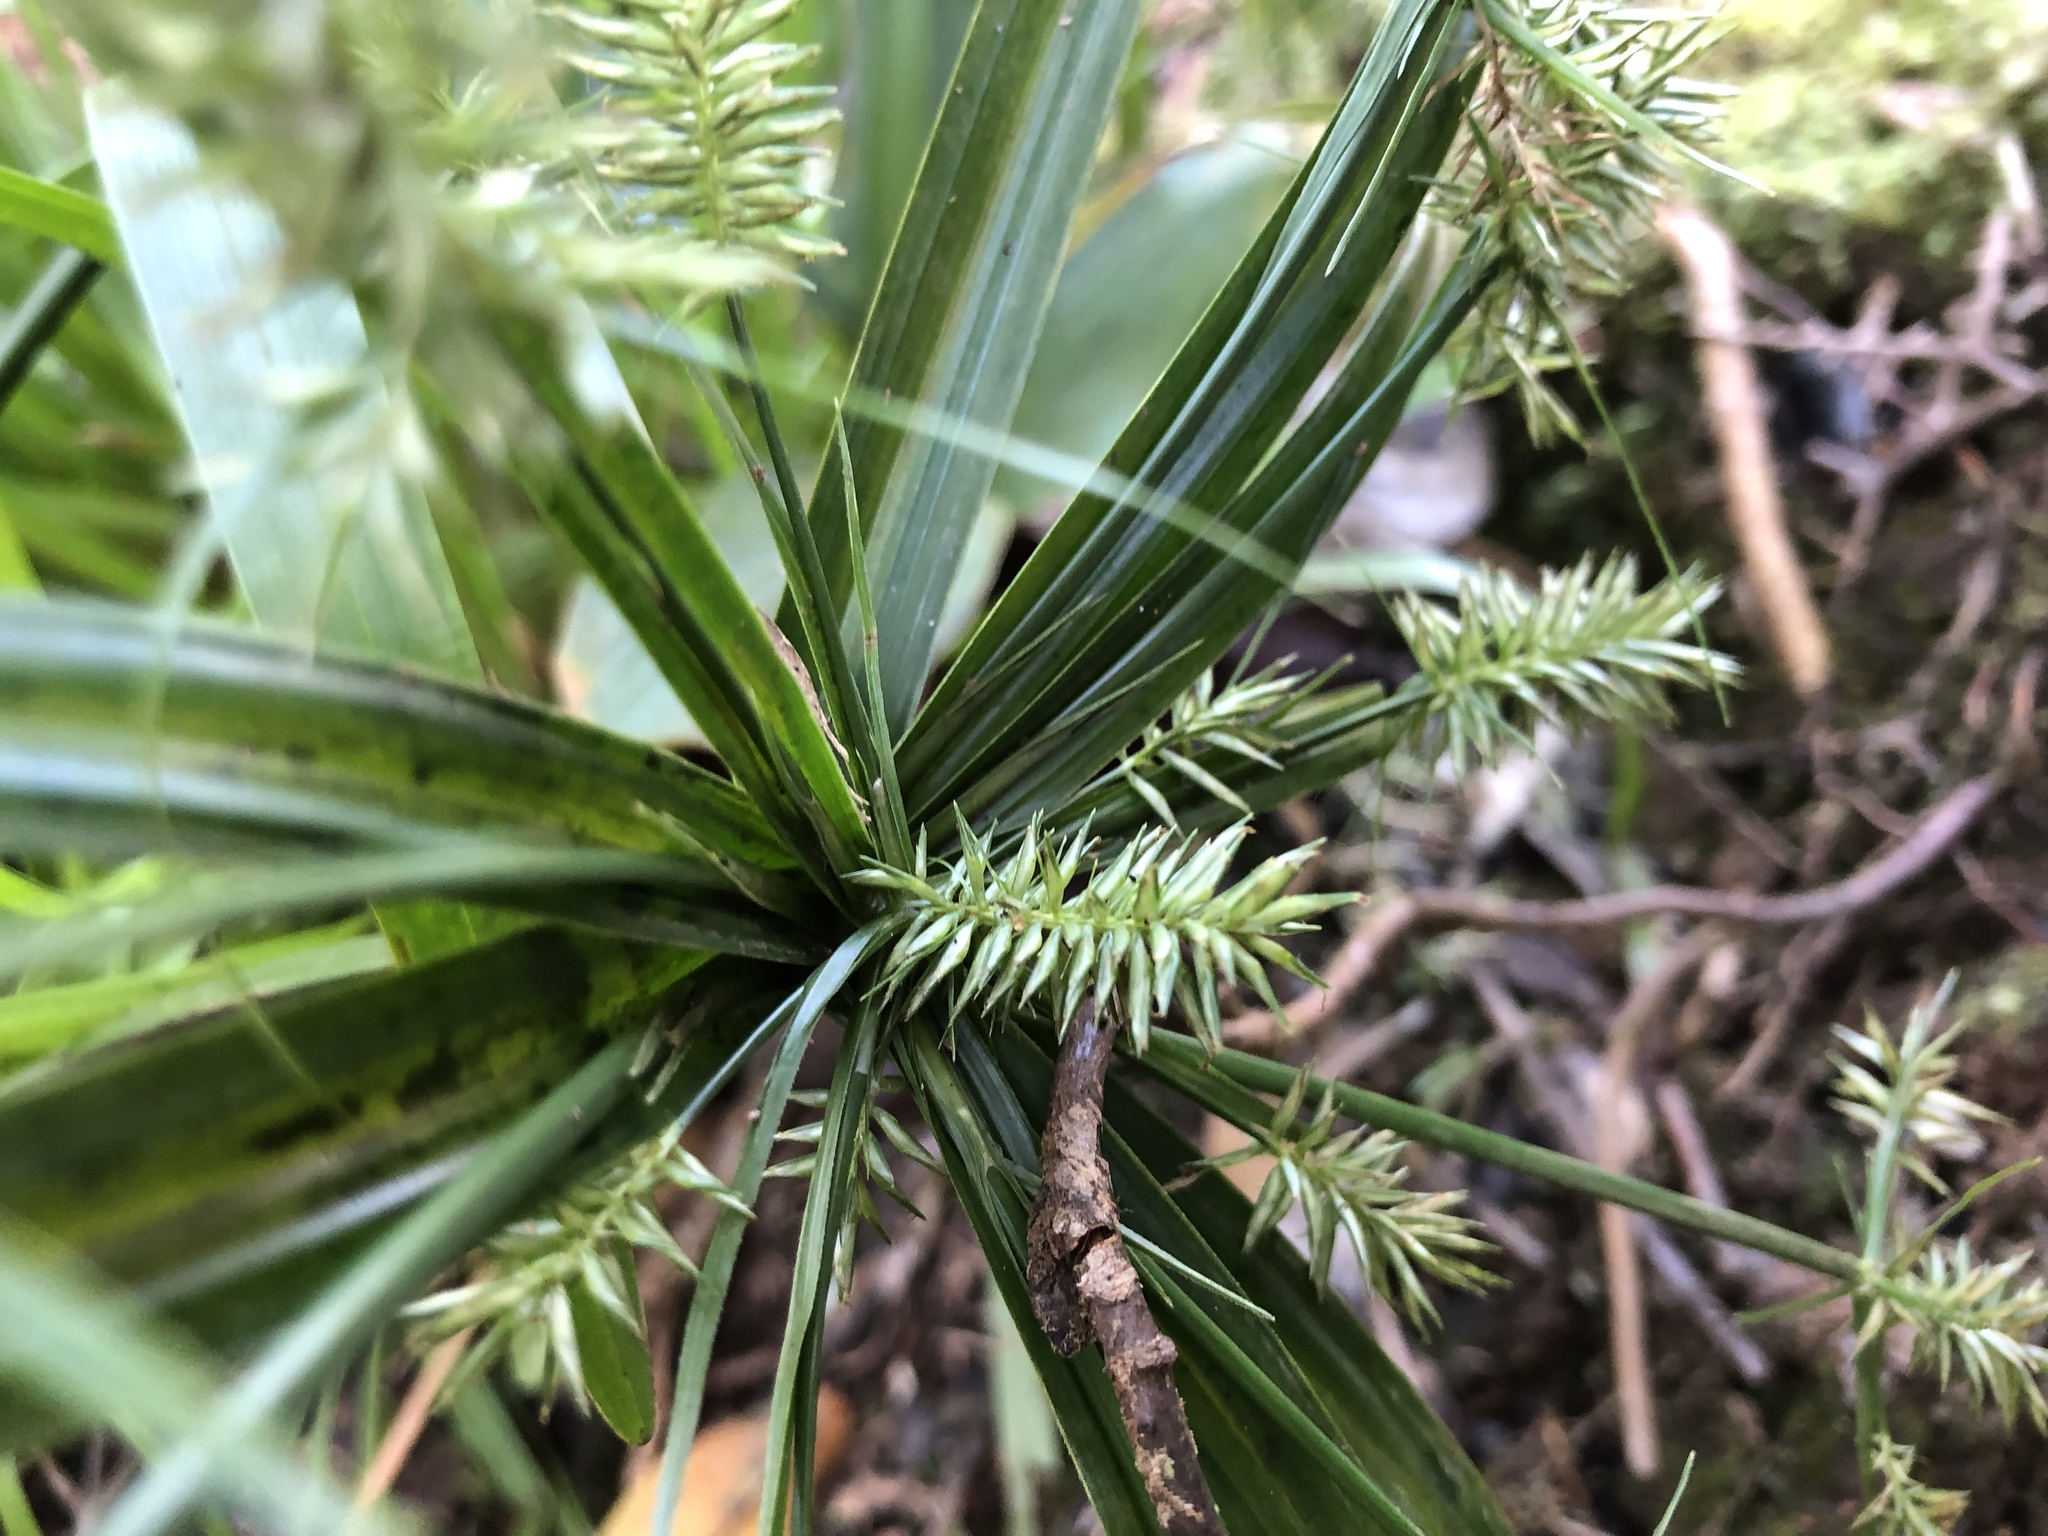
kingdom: Plantae
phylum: Tracheophyta
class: Liliopsida
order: Poales
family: Cyperaceae
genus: Cyperus
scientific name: Cyperus meyenianus
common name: Meyen's flatsedge
